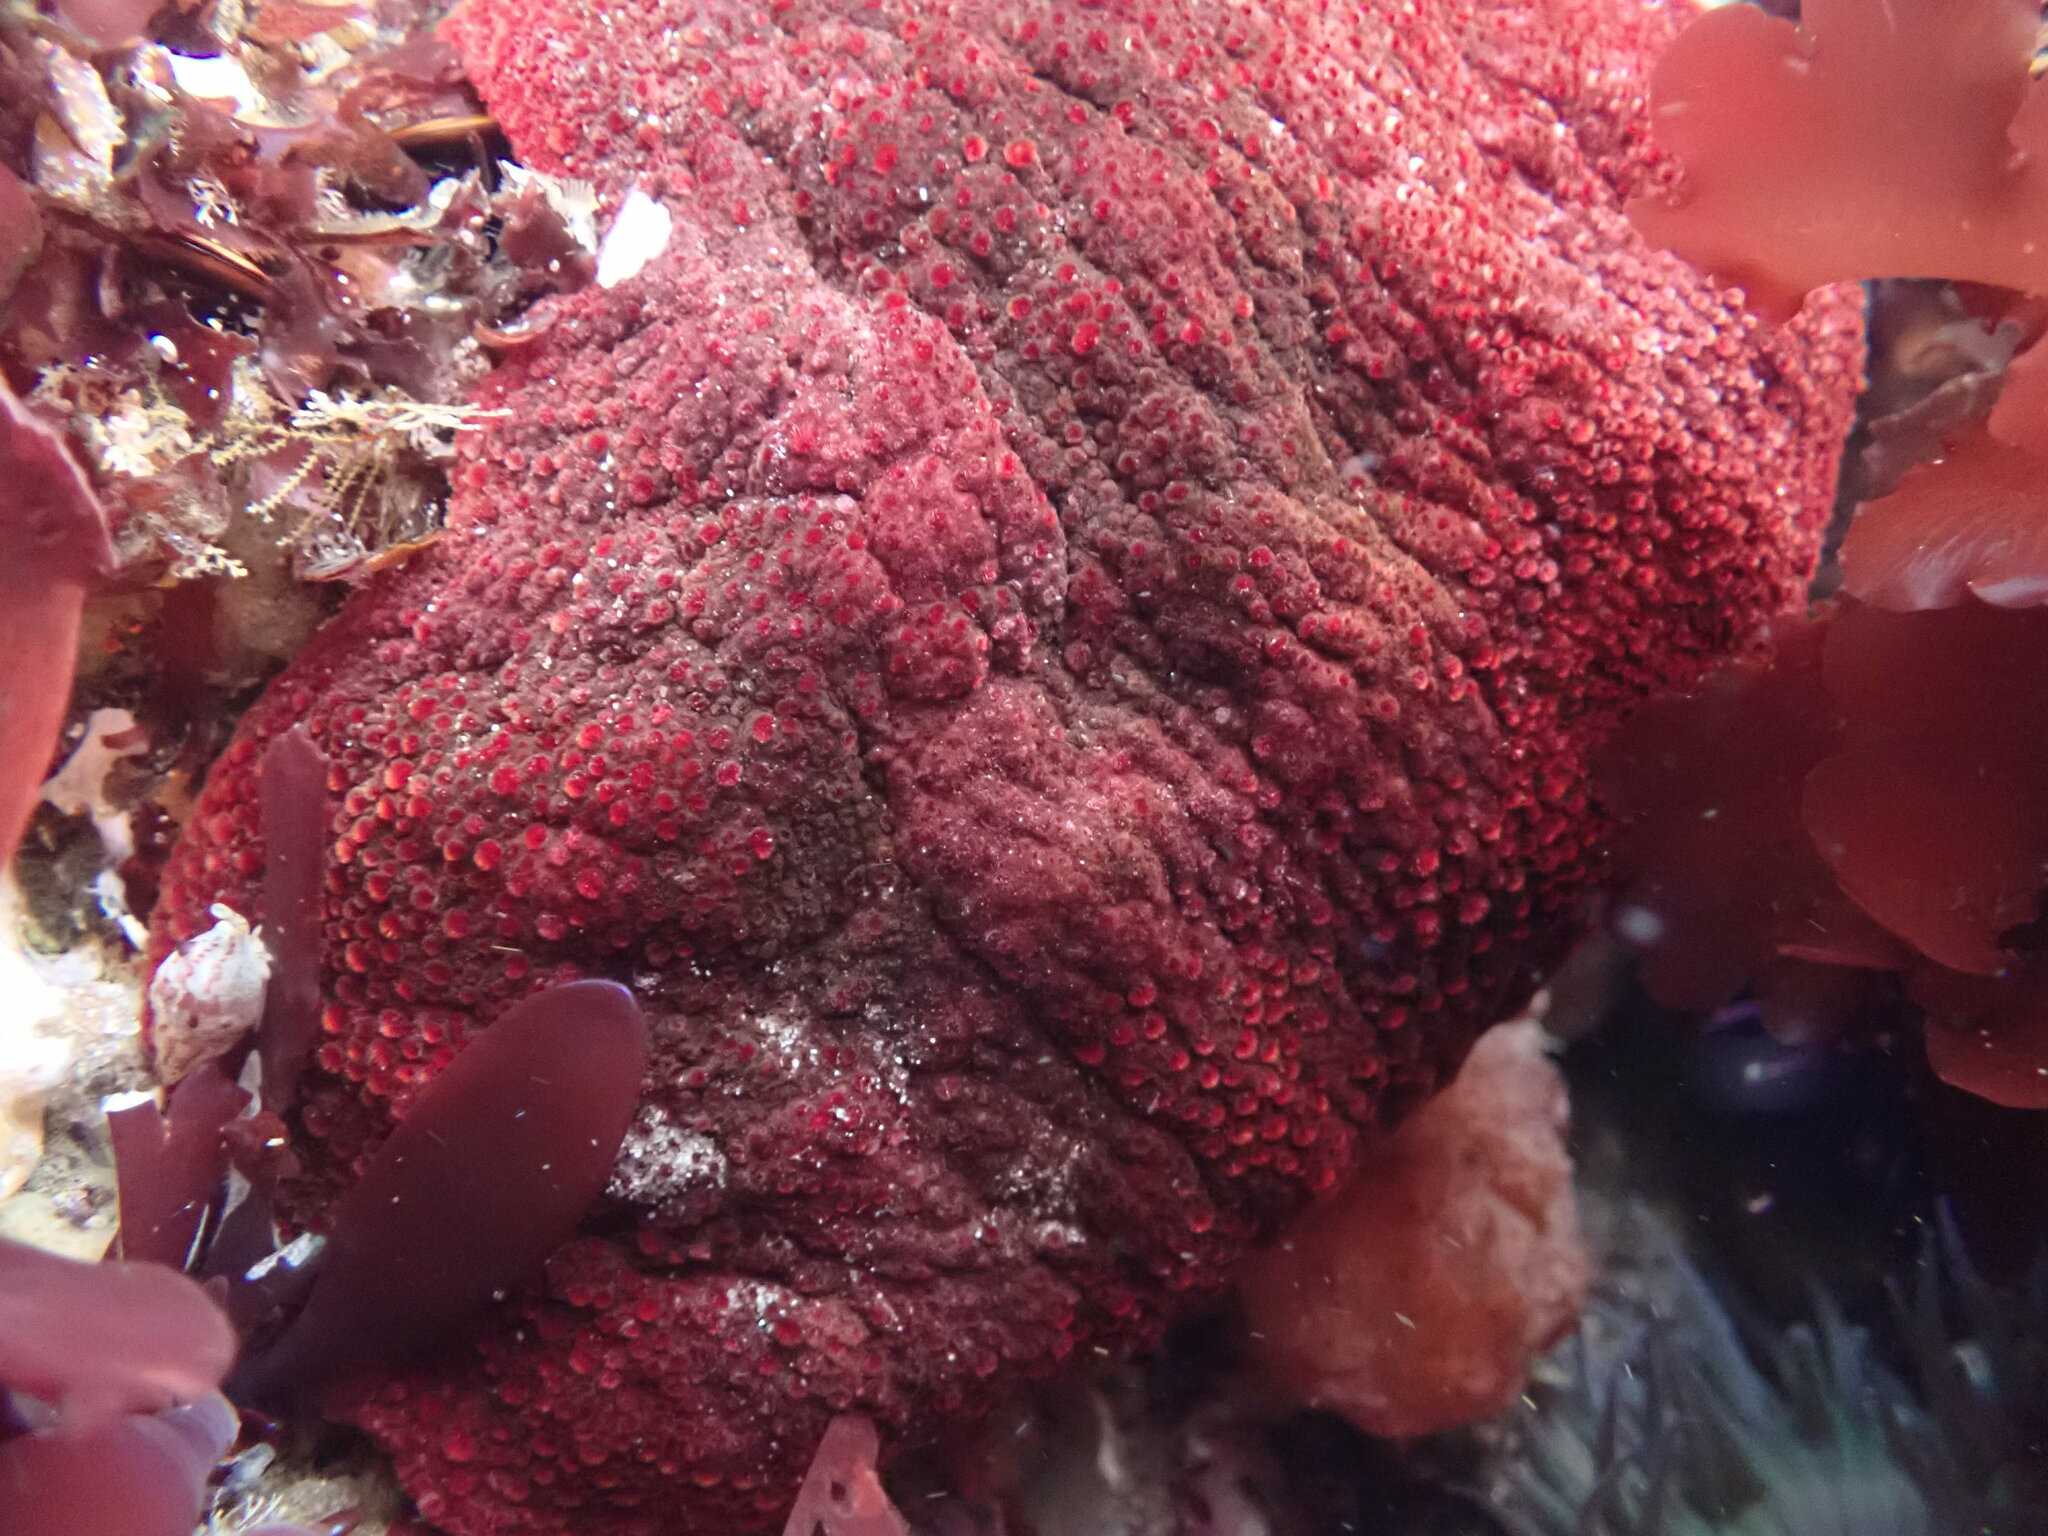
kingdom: Animalia
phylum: Mollusca
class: Polyplacophora
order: Chitonida
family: Acanthochitonidae
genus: Cryptochiton
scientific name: Cryptochiton stelleri
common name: Giant pacific chiton
